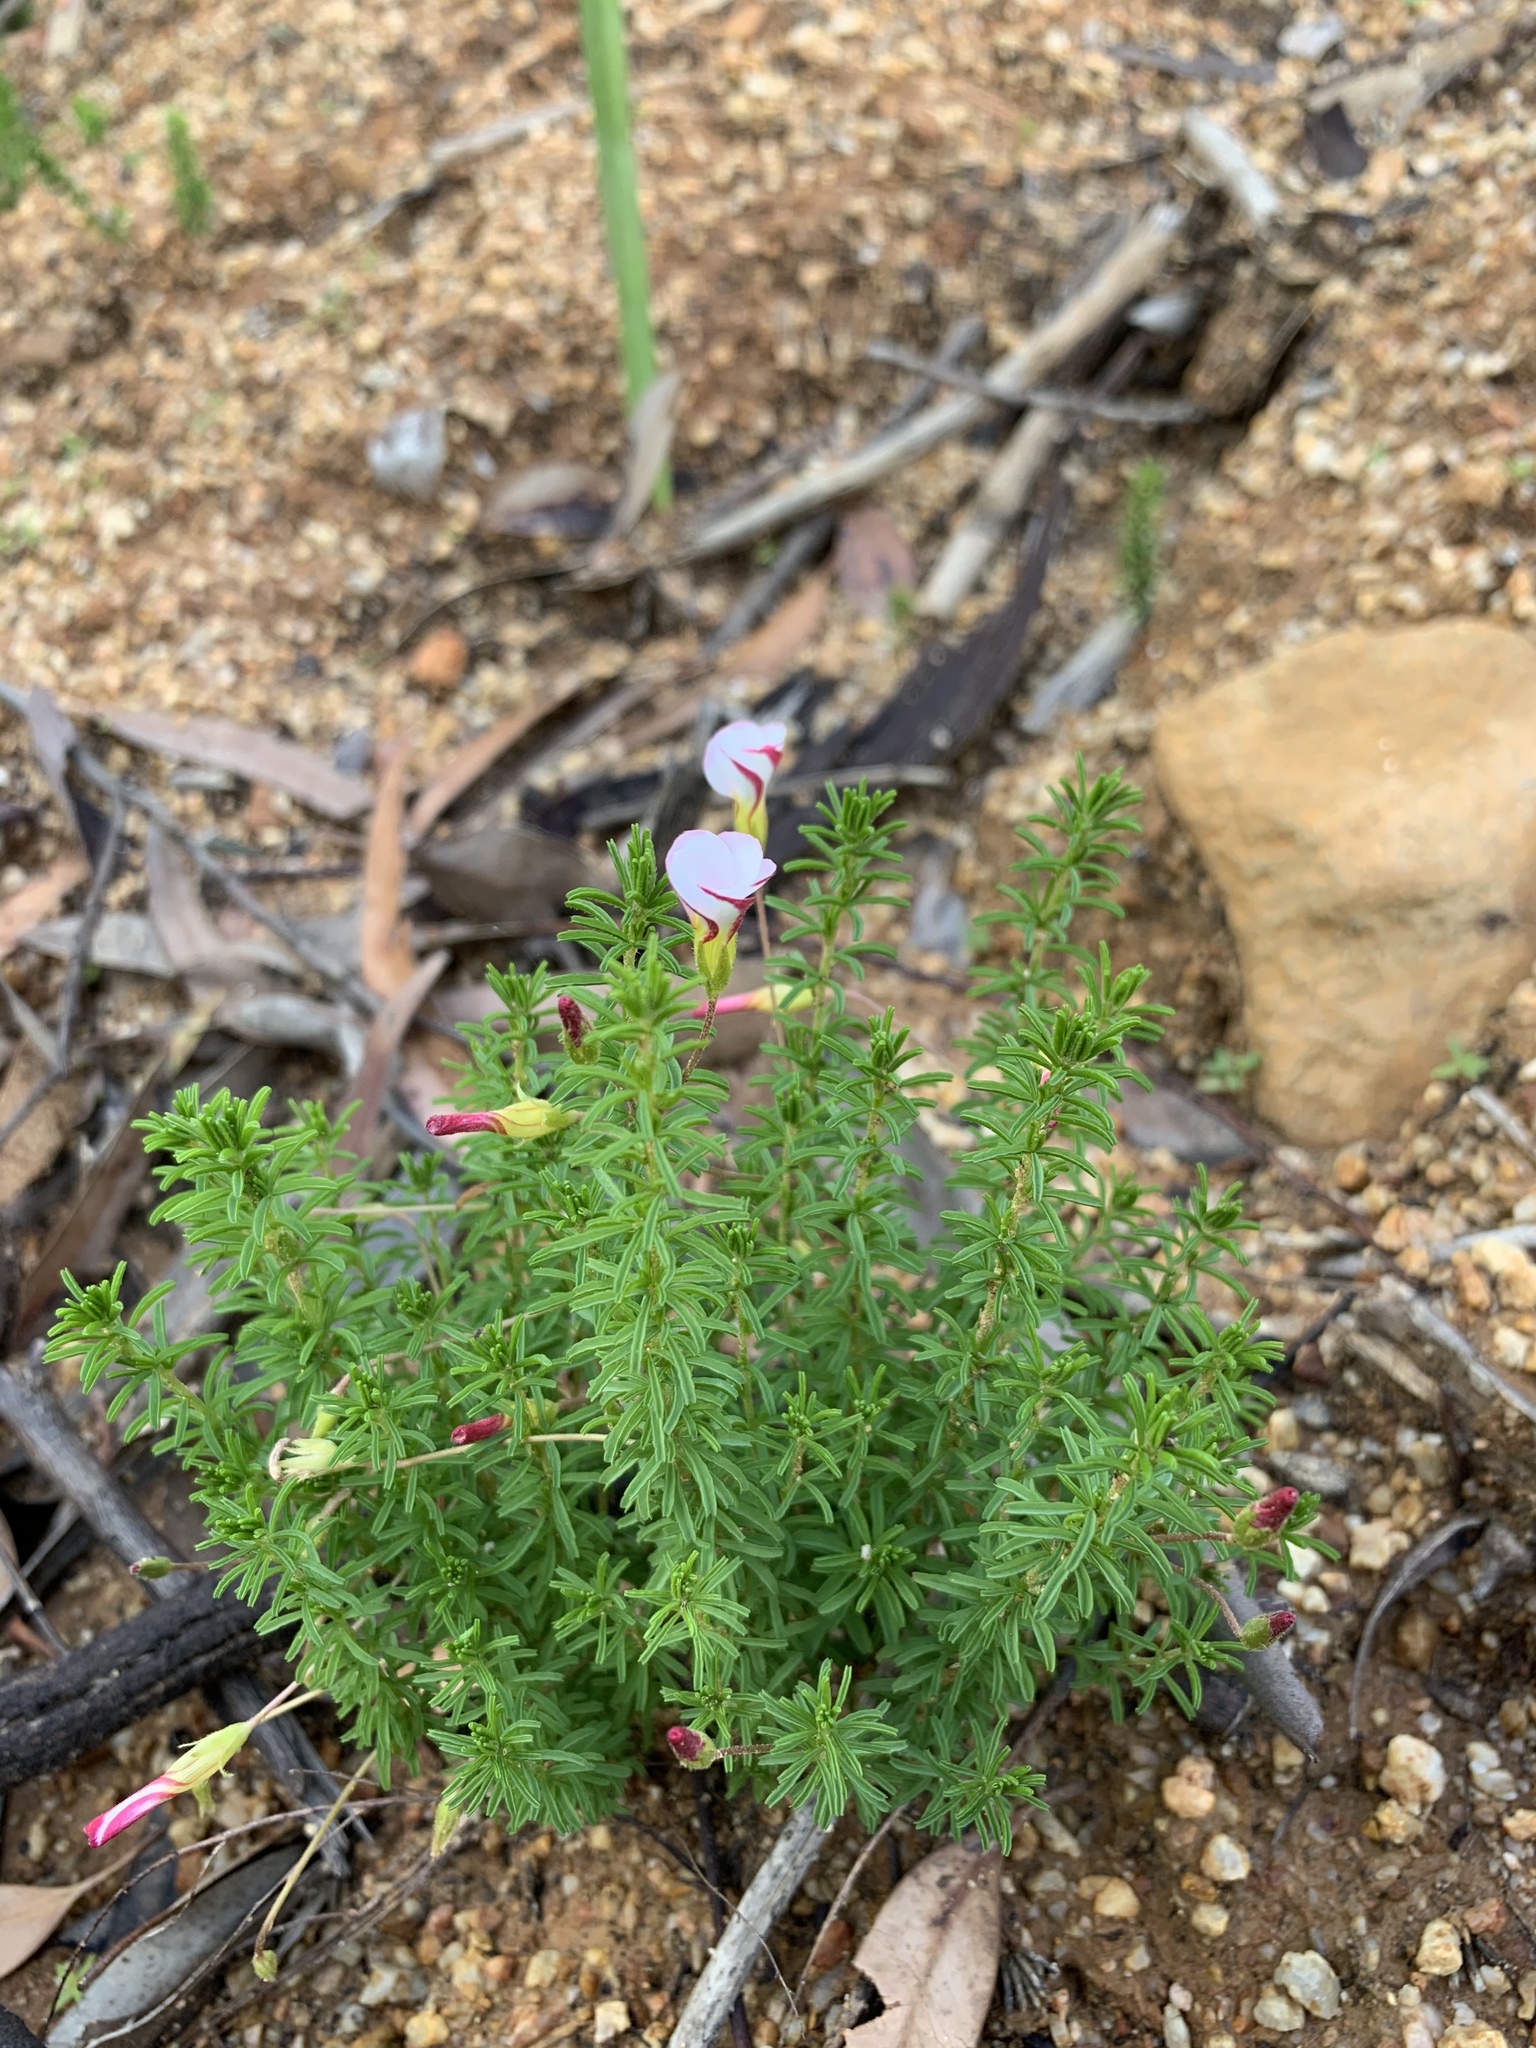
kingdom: Plantae
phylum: Tracheophyta
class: Magnoliopsida
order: Oxalidales
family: Oxalidaceae
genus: Oxalis
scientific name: Oxalis tenuifolia
